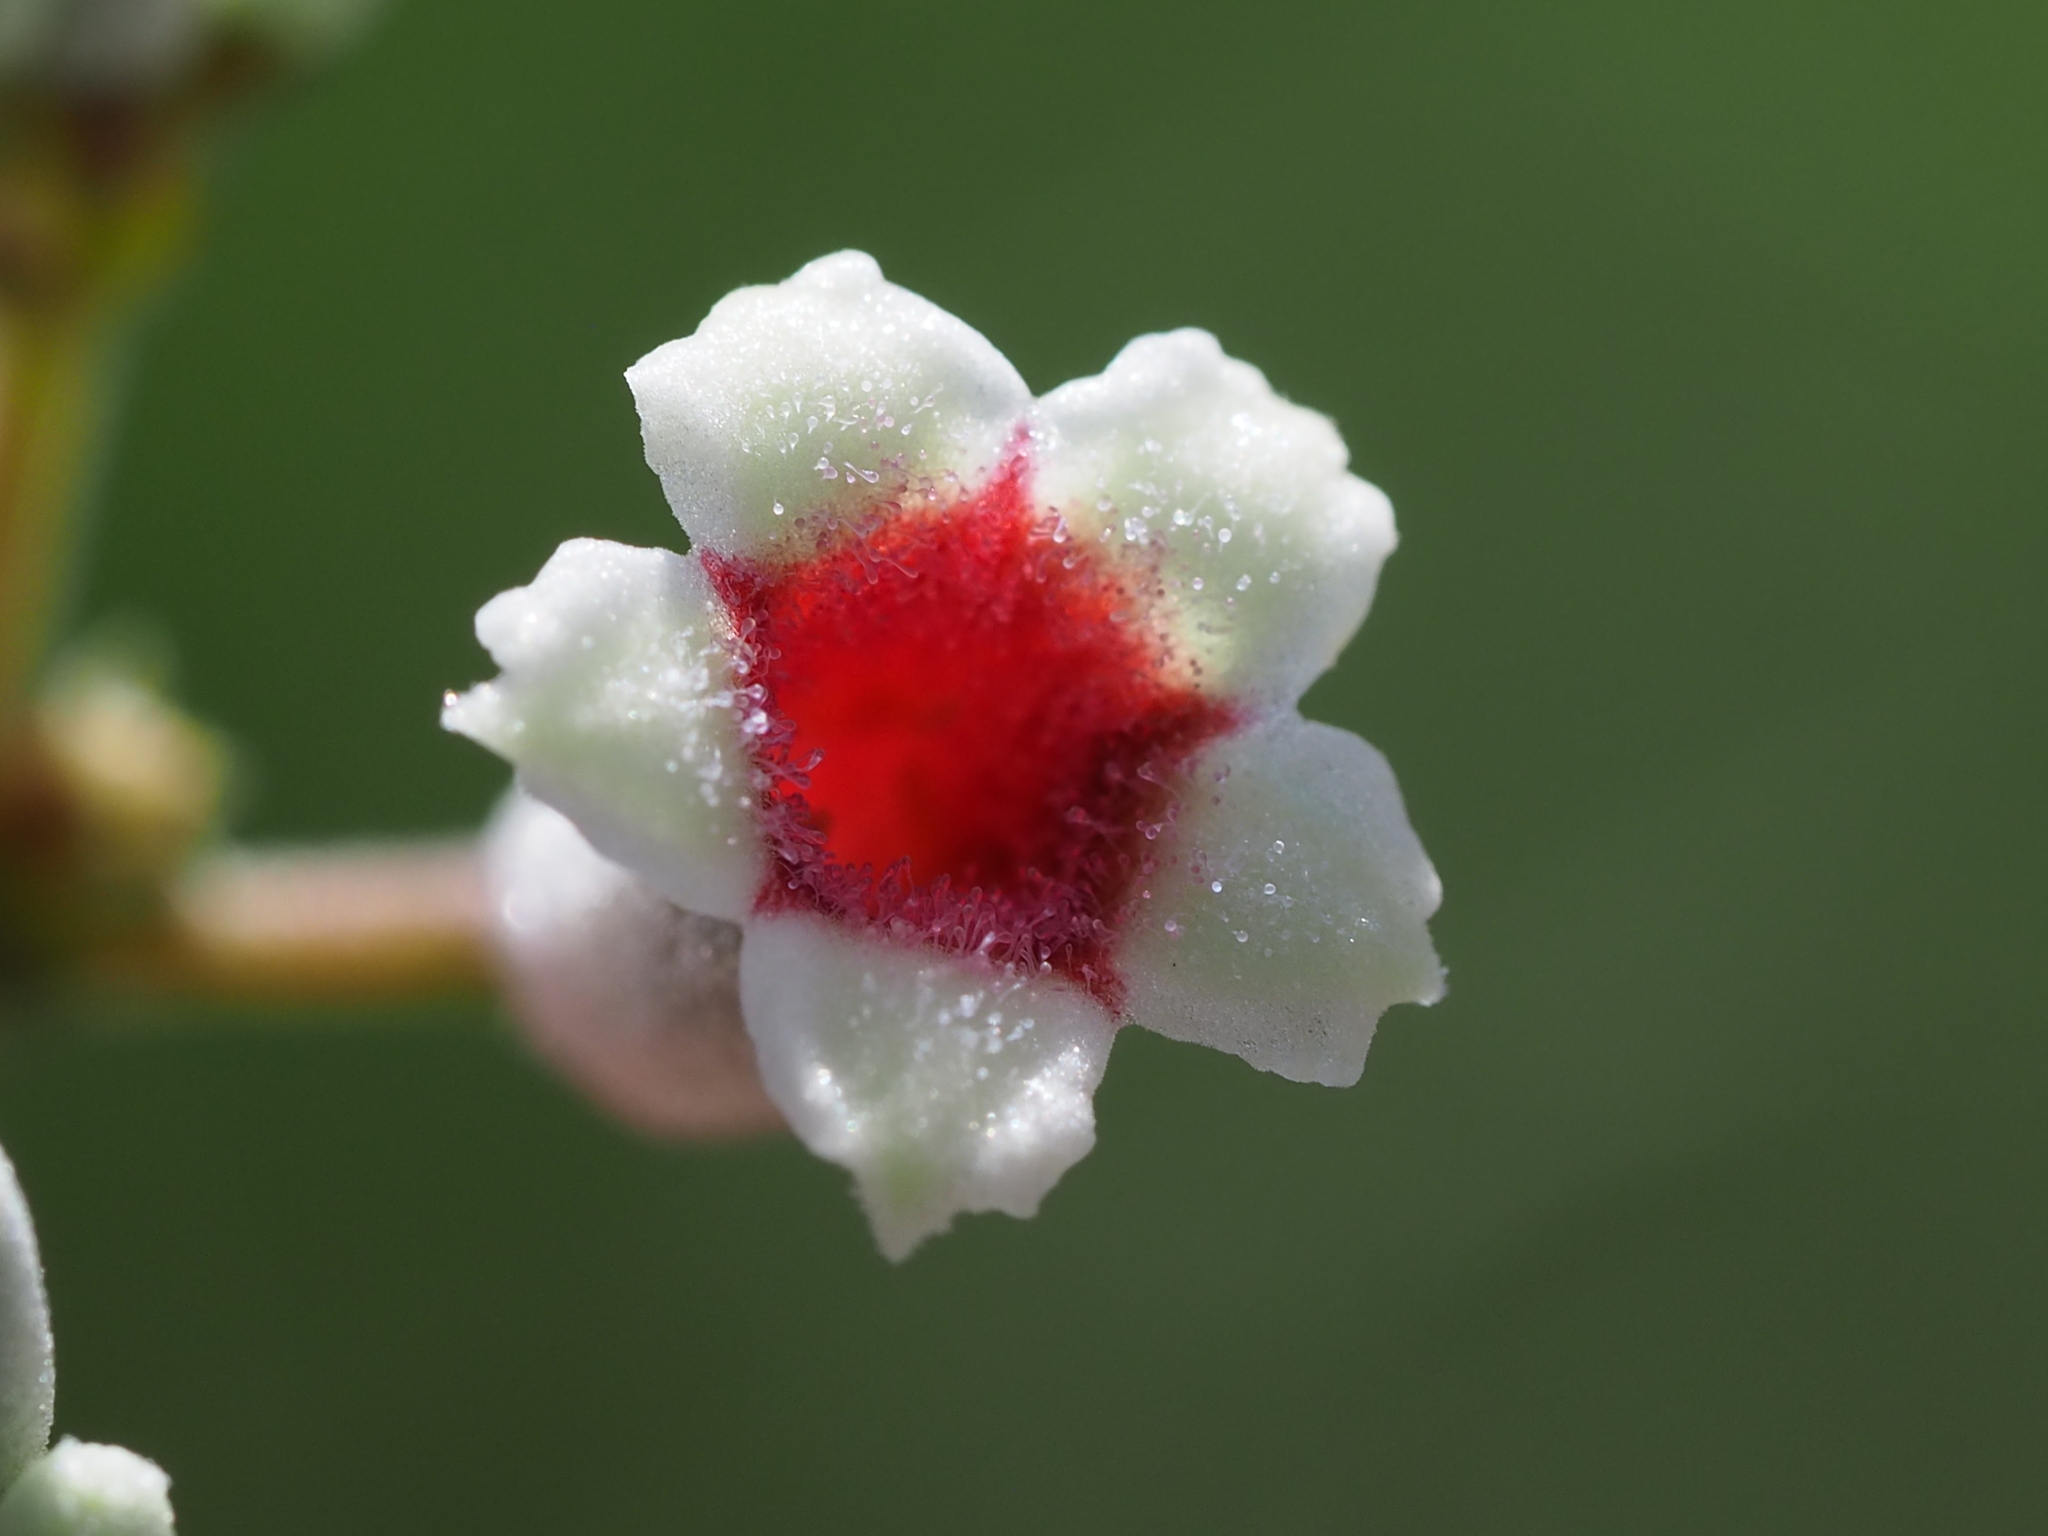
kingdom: Plantae
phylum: Tracheophyta
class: Magnoliopsida
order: Gentianales
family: Rubiaceae
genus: Paederia
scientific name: Paederia cavaleriei
